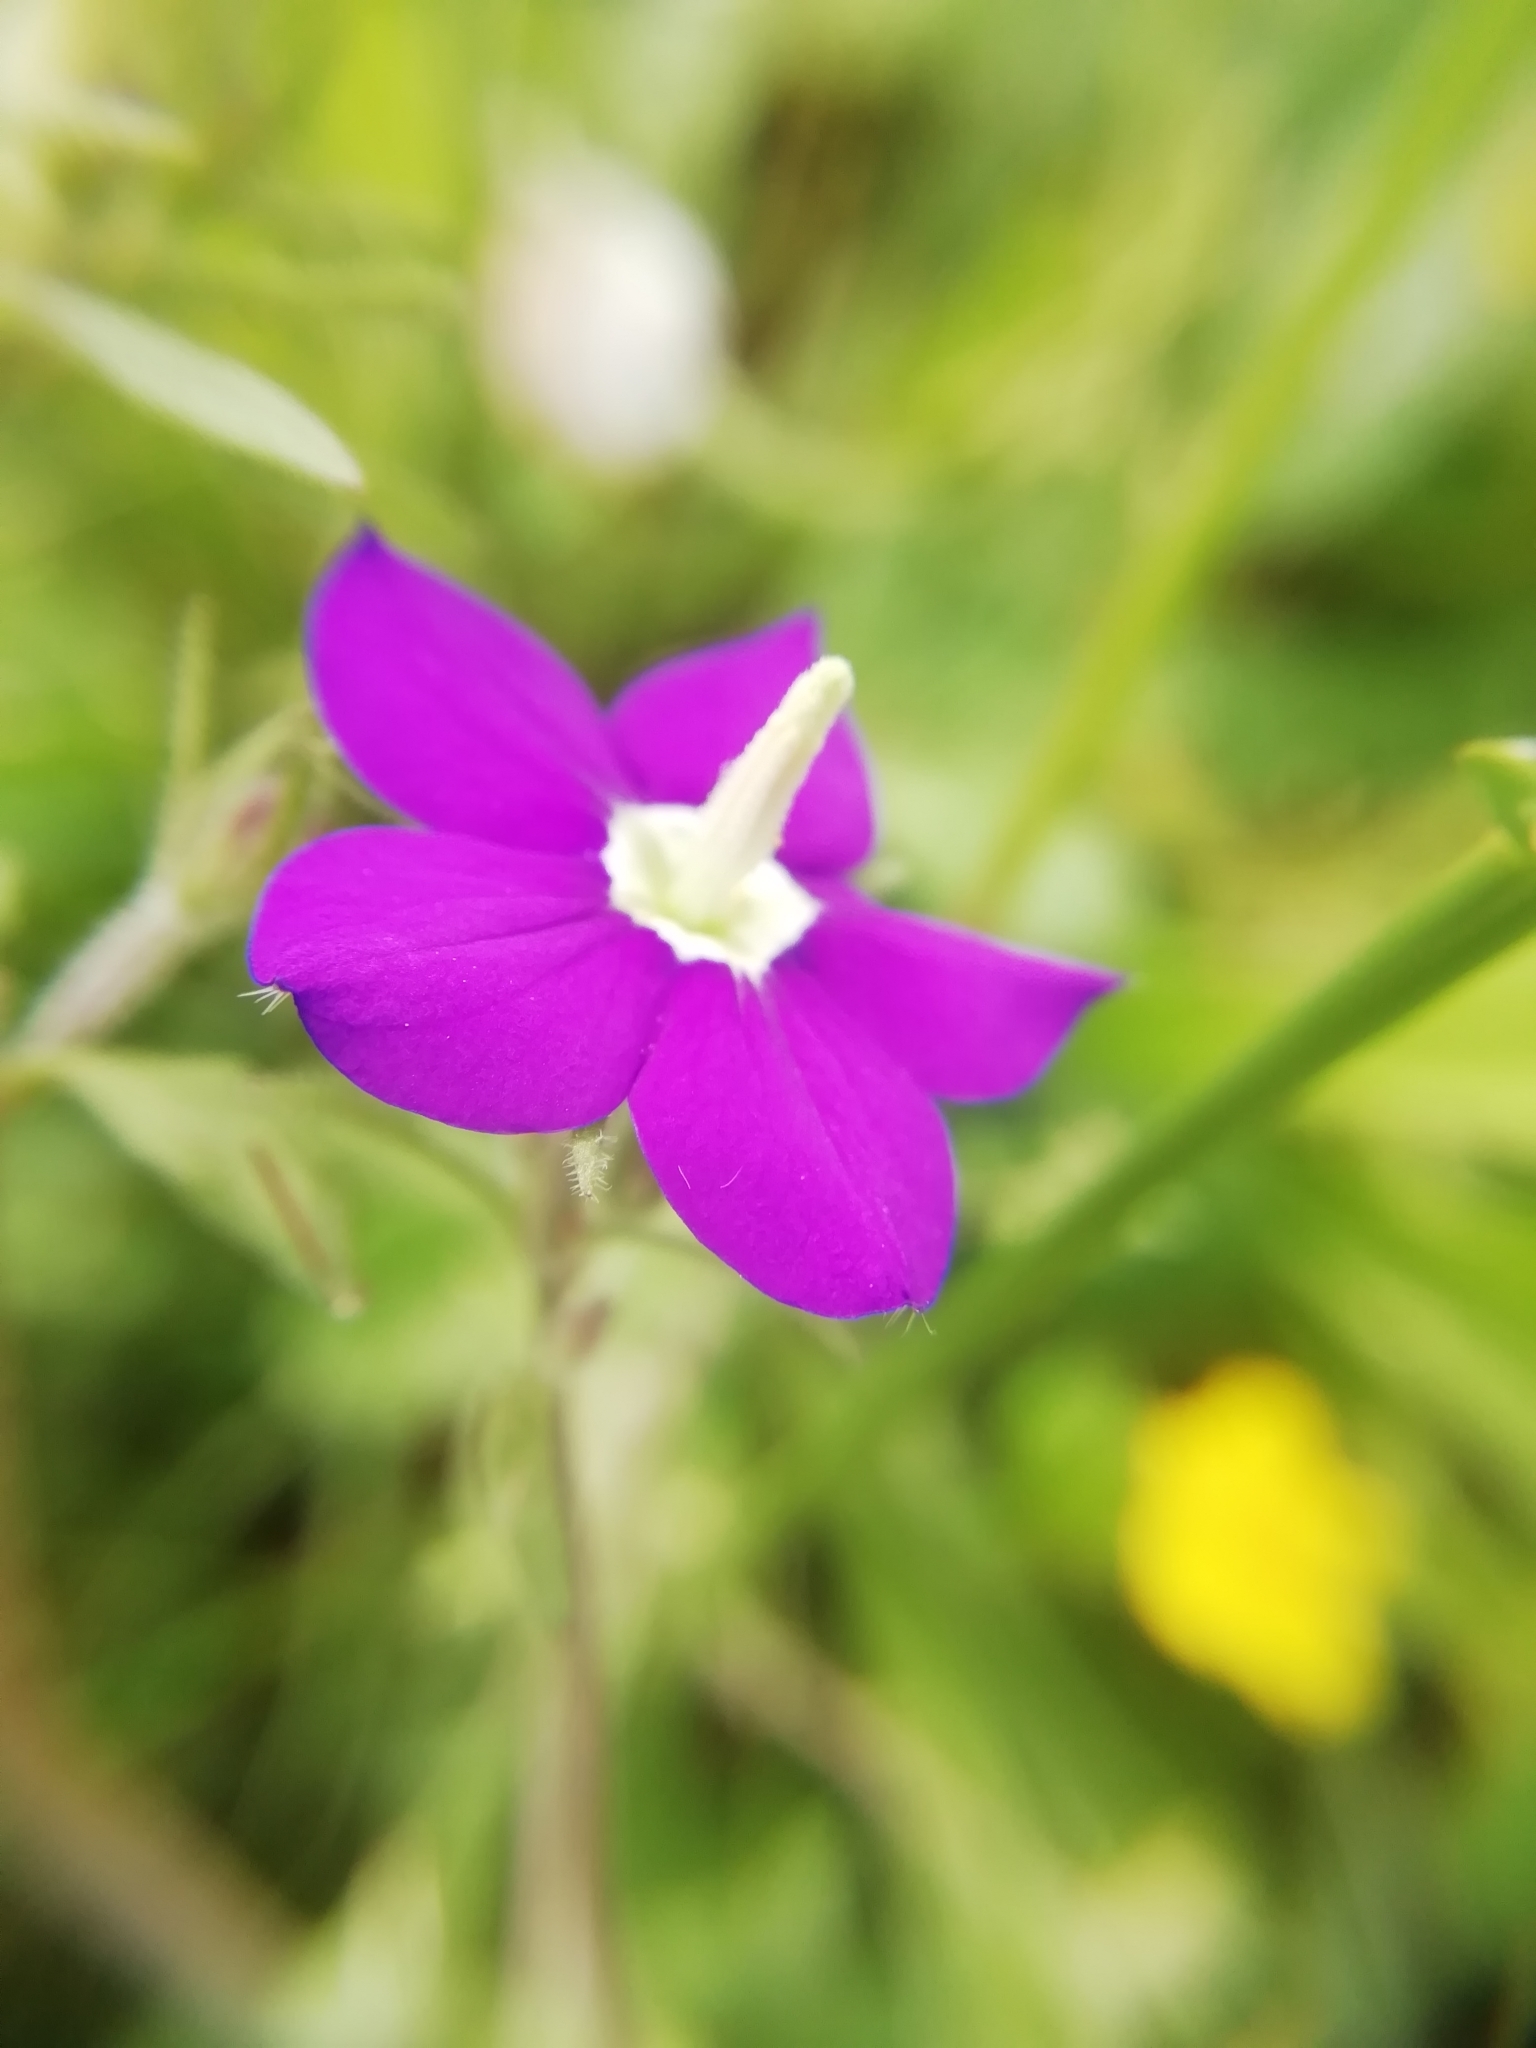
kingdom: Plantae
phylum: Tracheophyta
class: Magnoliopsida
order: Asterales
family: Campanulaceae
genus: Legousia
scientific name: Legousia speculum-veneris
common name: Large venus's-looking-glass
